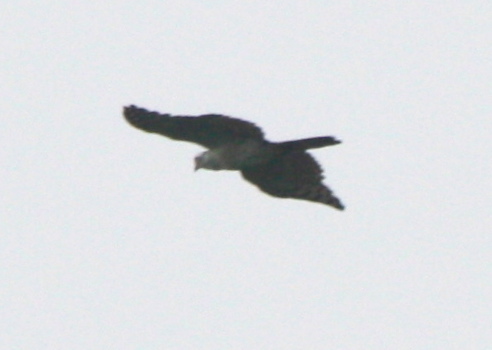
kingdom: Animalia
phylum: Chordata
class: Aves
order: Accipitriformes
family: Accipitridae
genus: Busarellus
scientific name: Busarellus nigricollis
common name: Black-collared hawk
